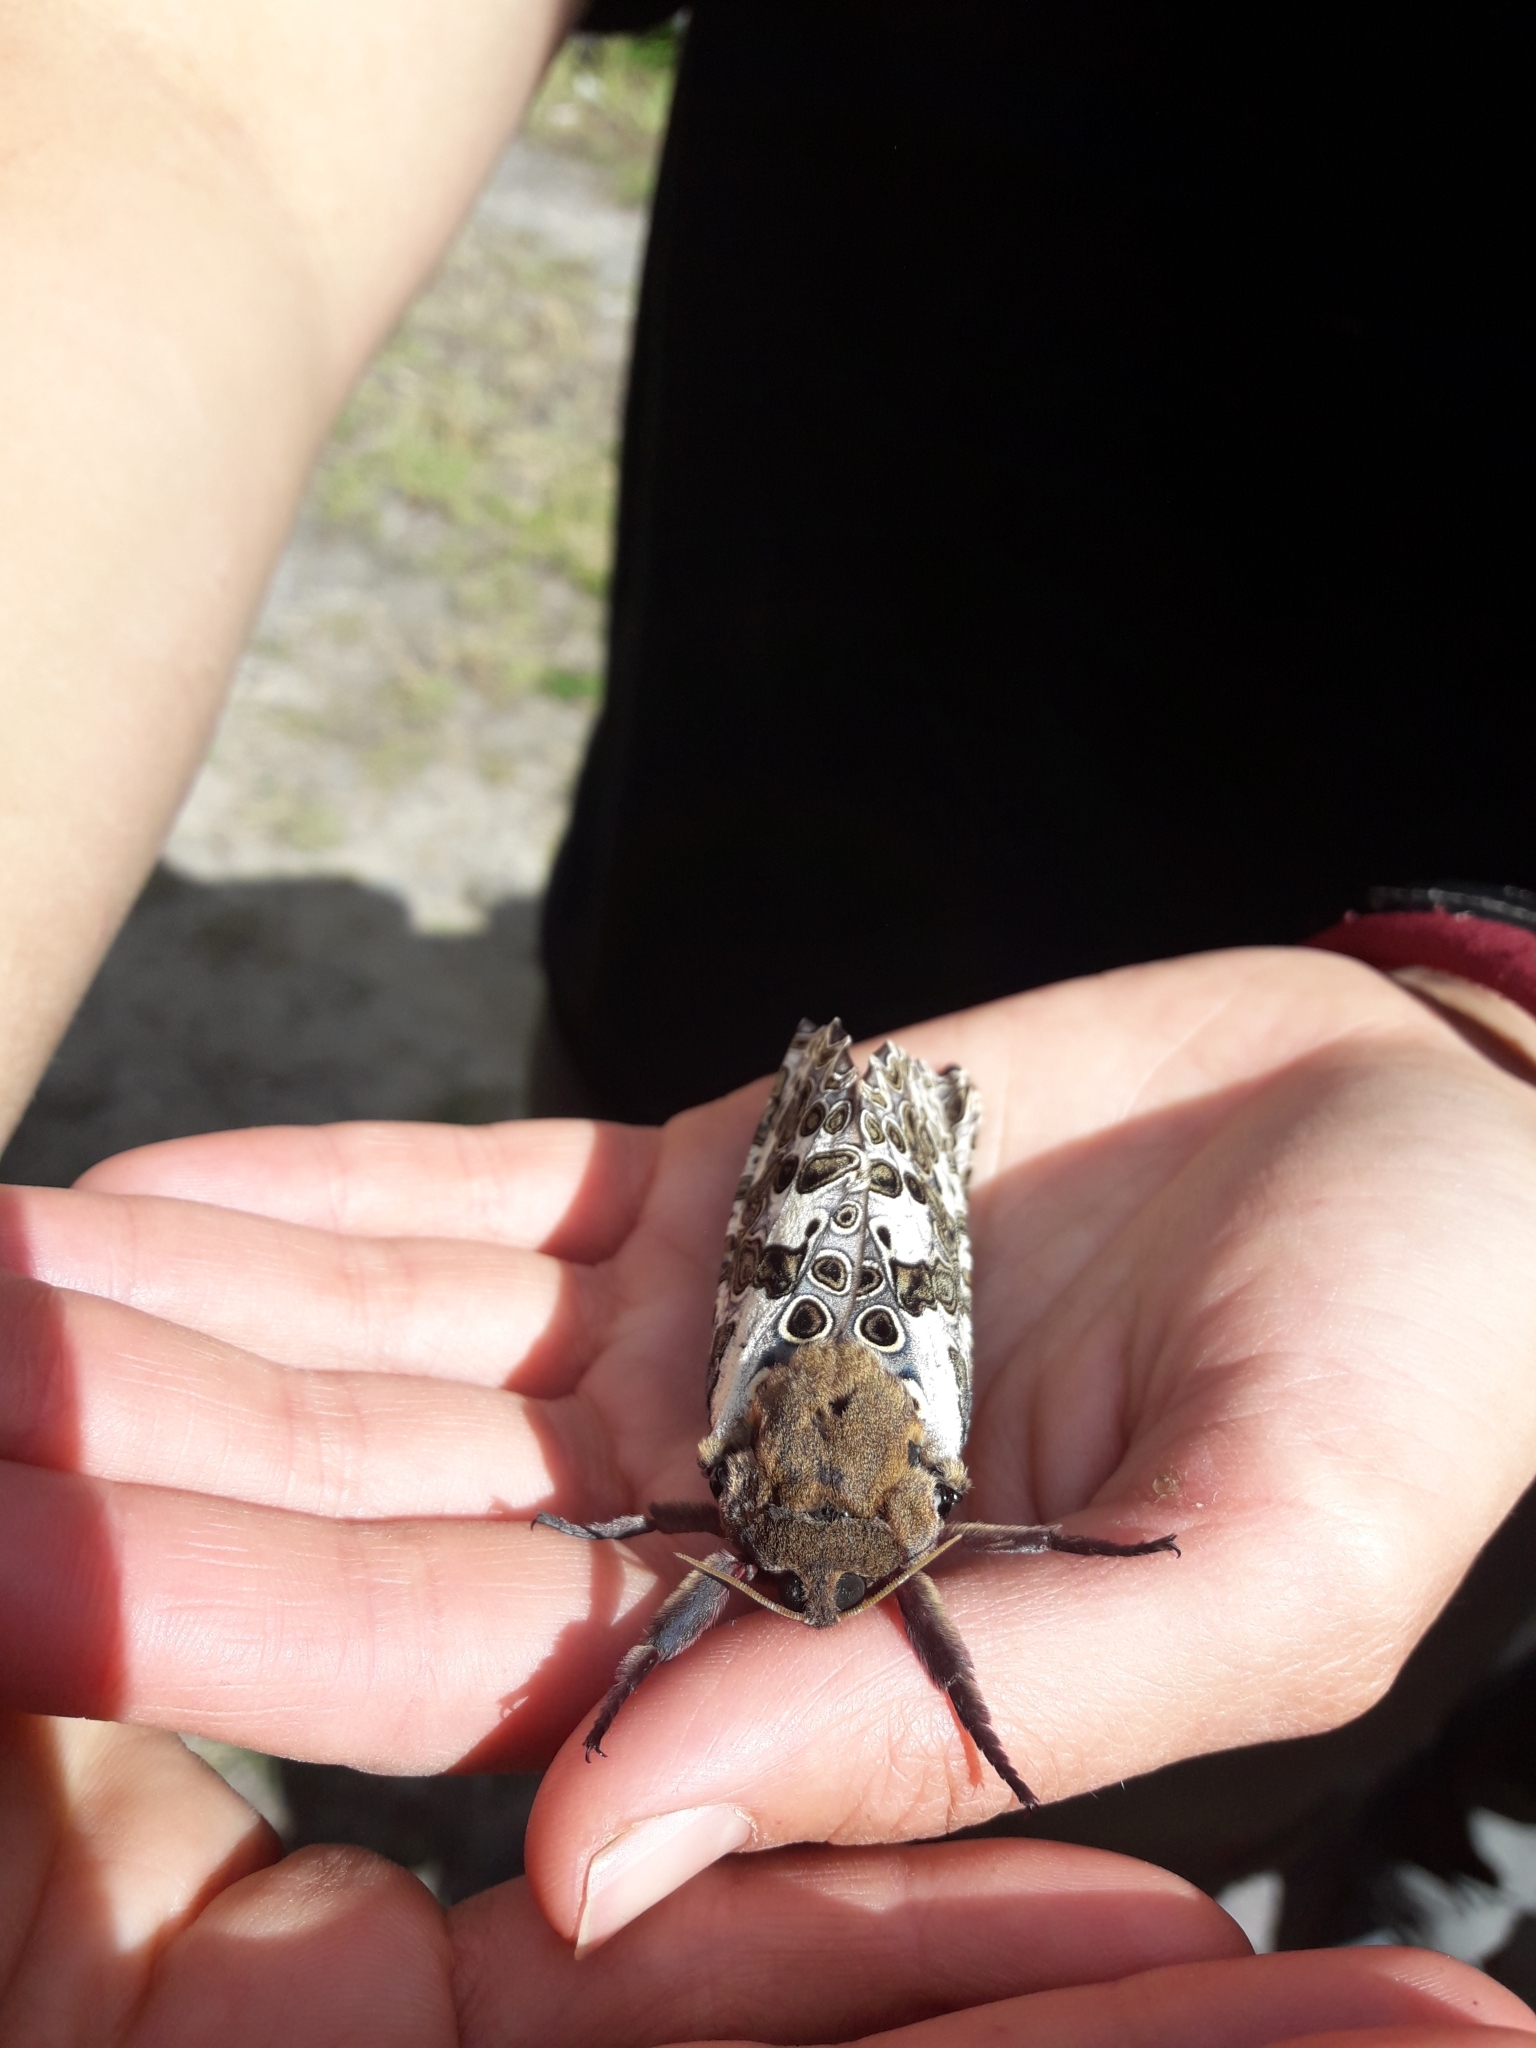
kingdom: Animalia
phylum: Arthropoda
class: Insecta
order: Lepidoptera
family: Hepialidae
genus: Andeabatis
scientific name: Andeabatis chilensis
